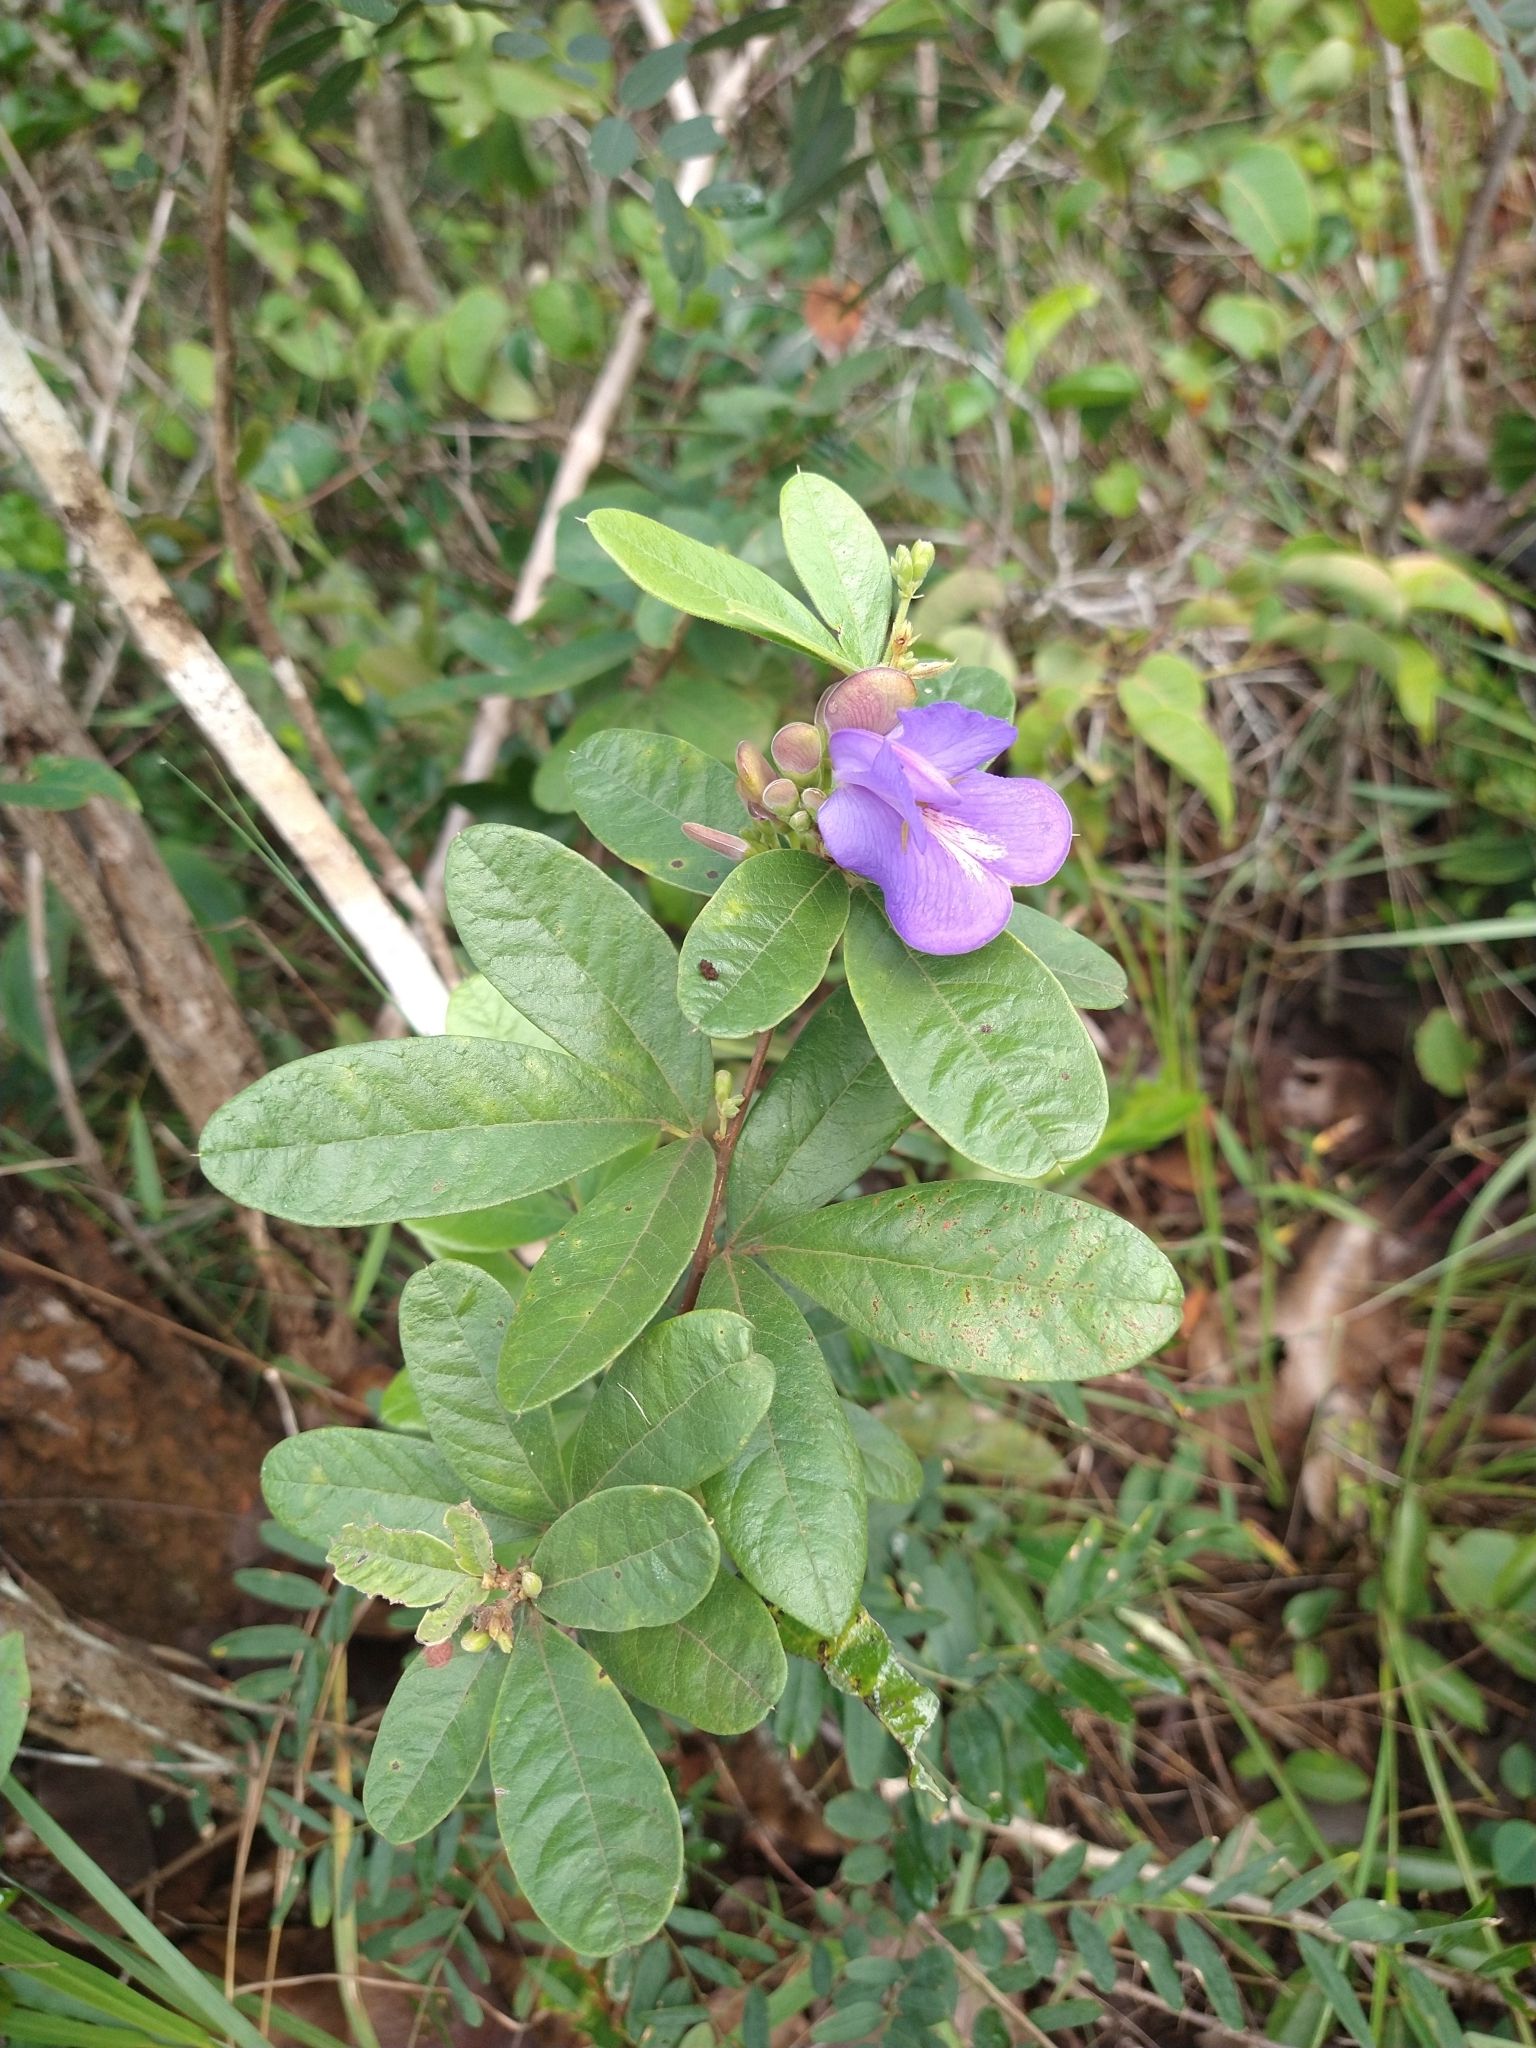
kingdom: Plantae
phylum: Tracheophyta
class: Magnoliopsida
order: Fabales
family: Fabaceae
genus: Periandra
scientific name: Periandra mediterranea
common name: Brazilian licorice
